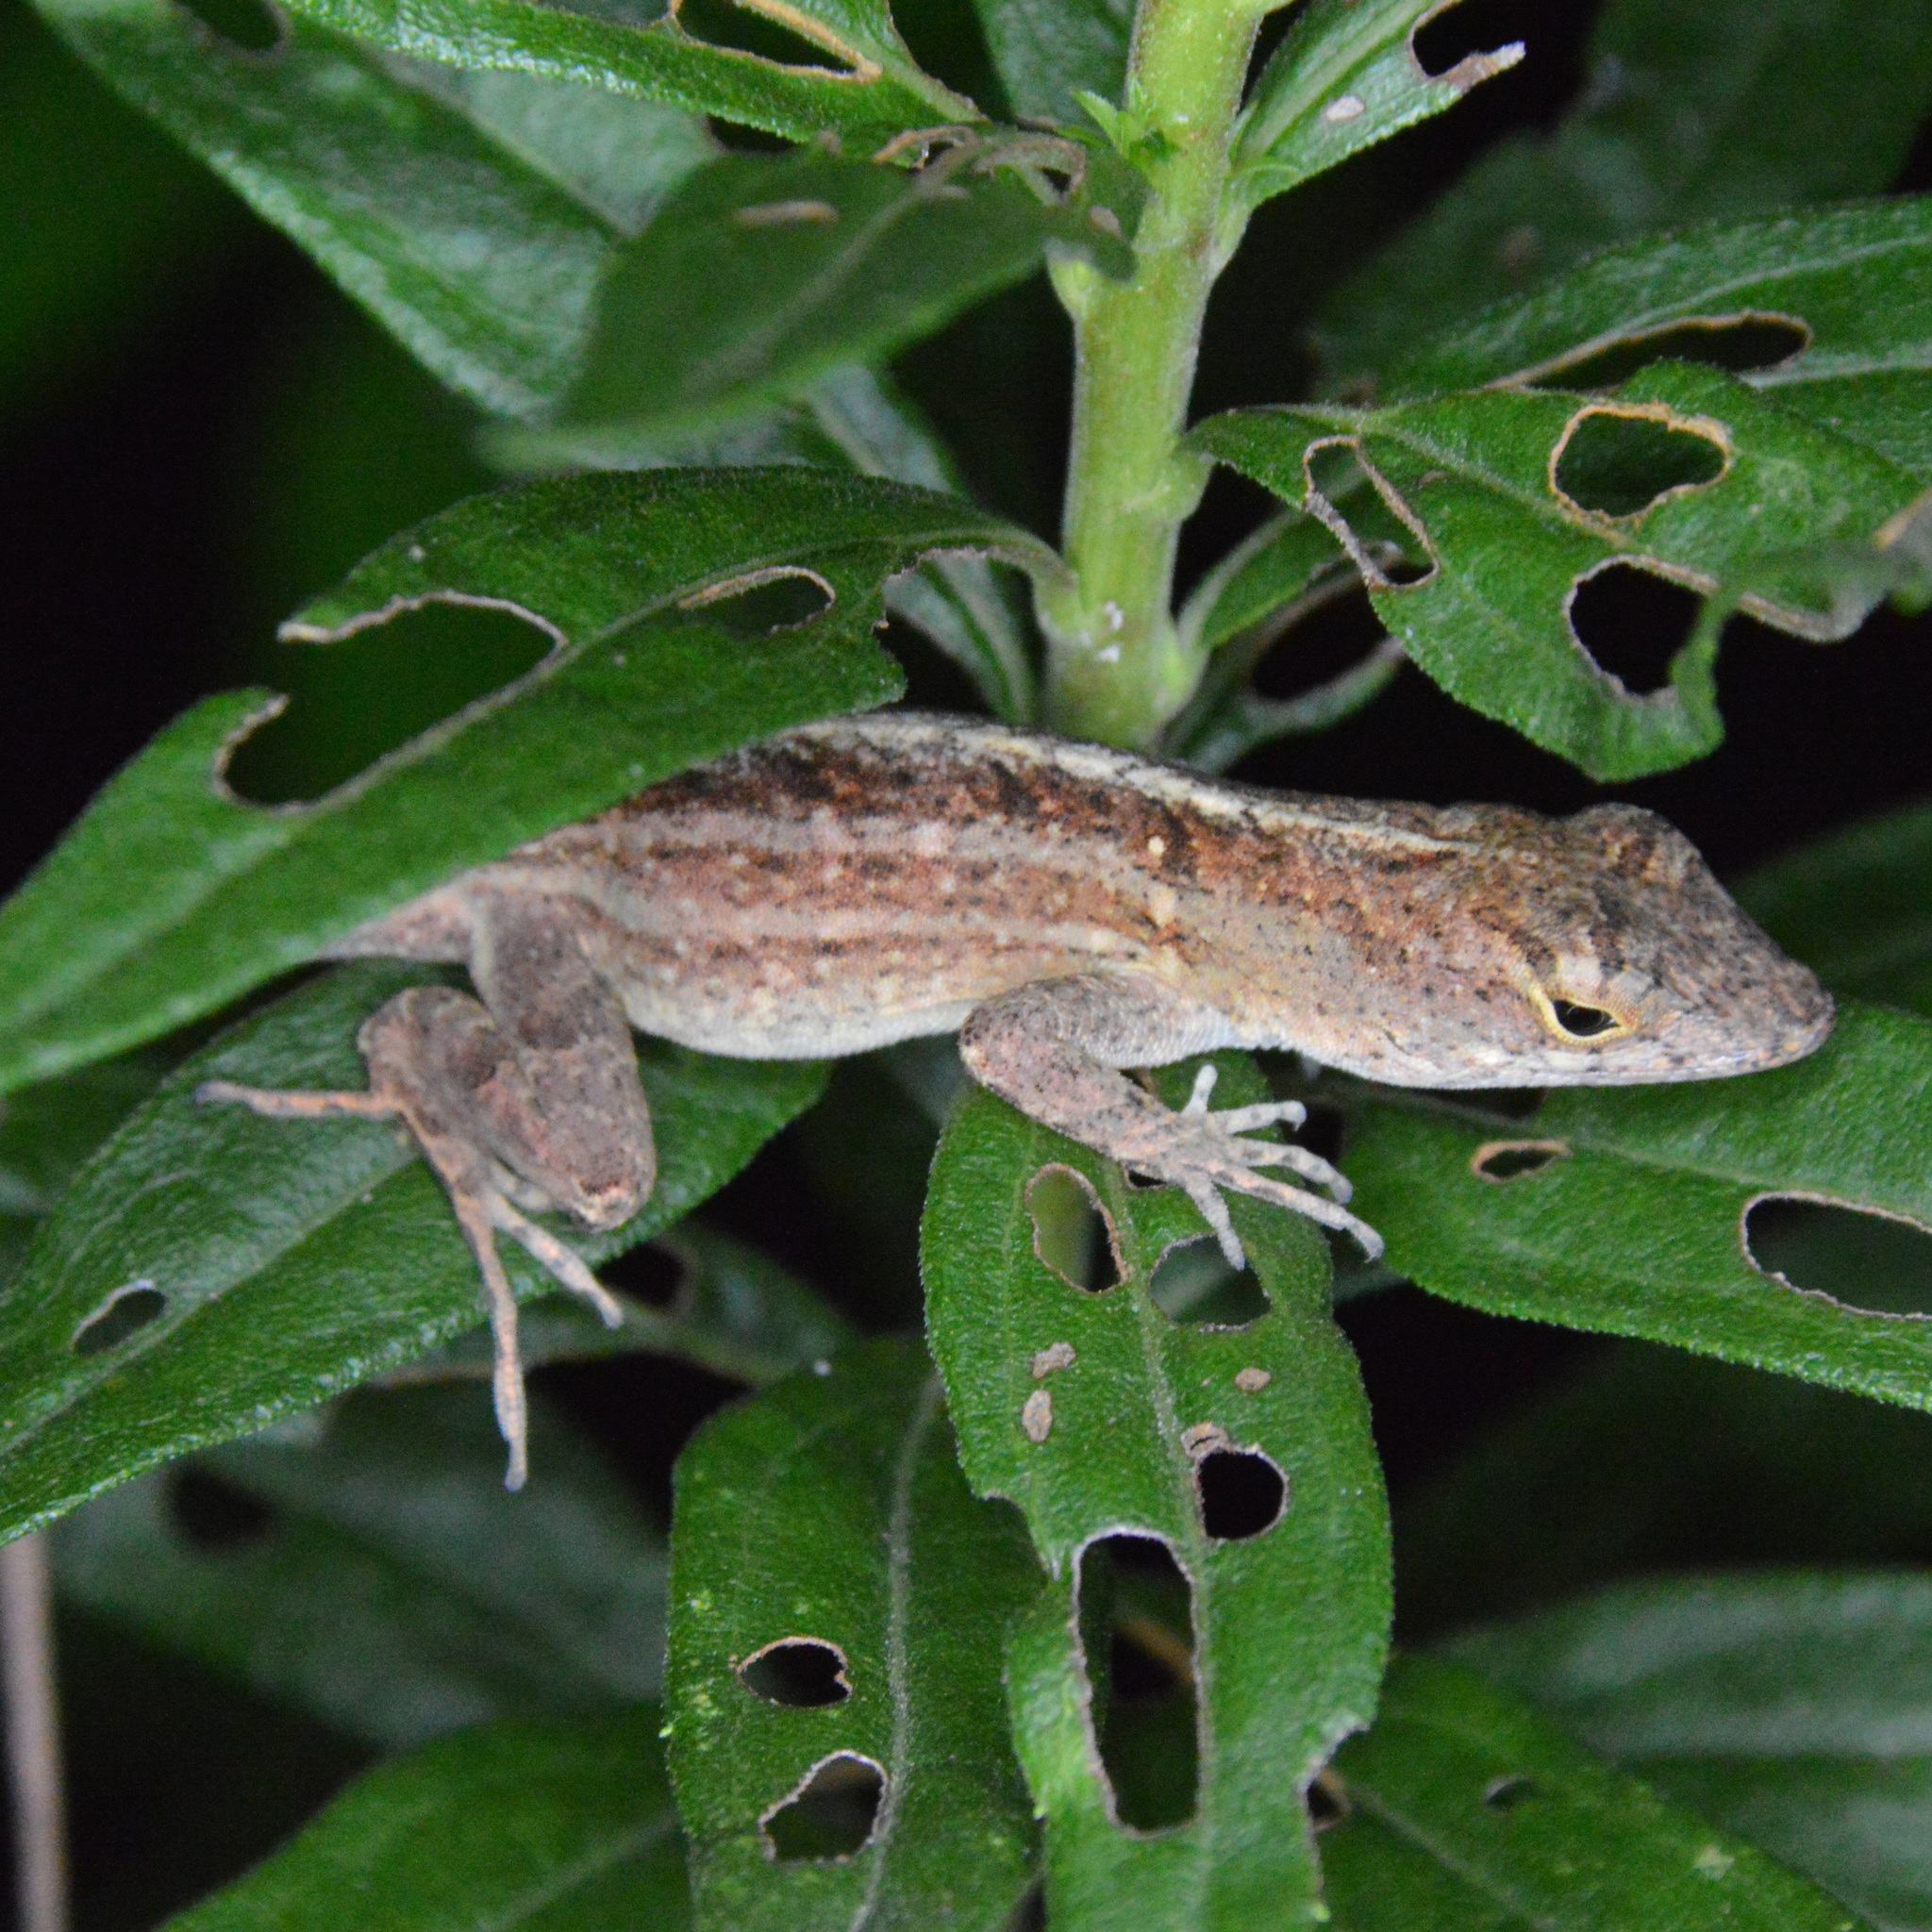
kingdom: Animalia
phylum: Chordata
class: Squamata
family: Dactyloidae
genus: Anolis
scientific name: Anolis sagrei
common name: Brown anole
